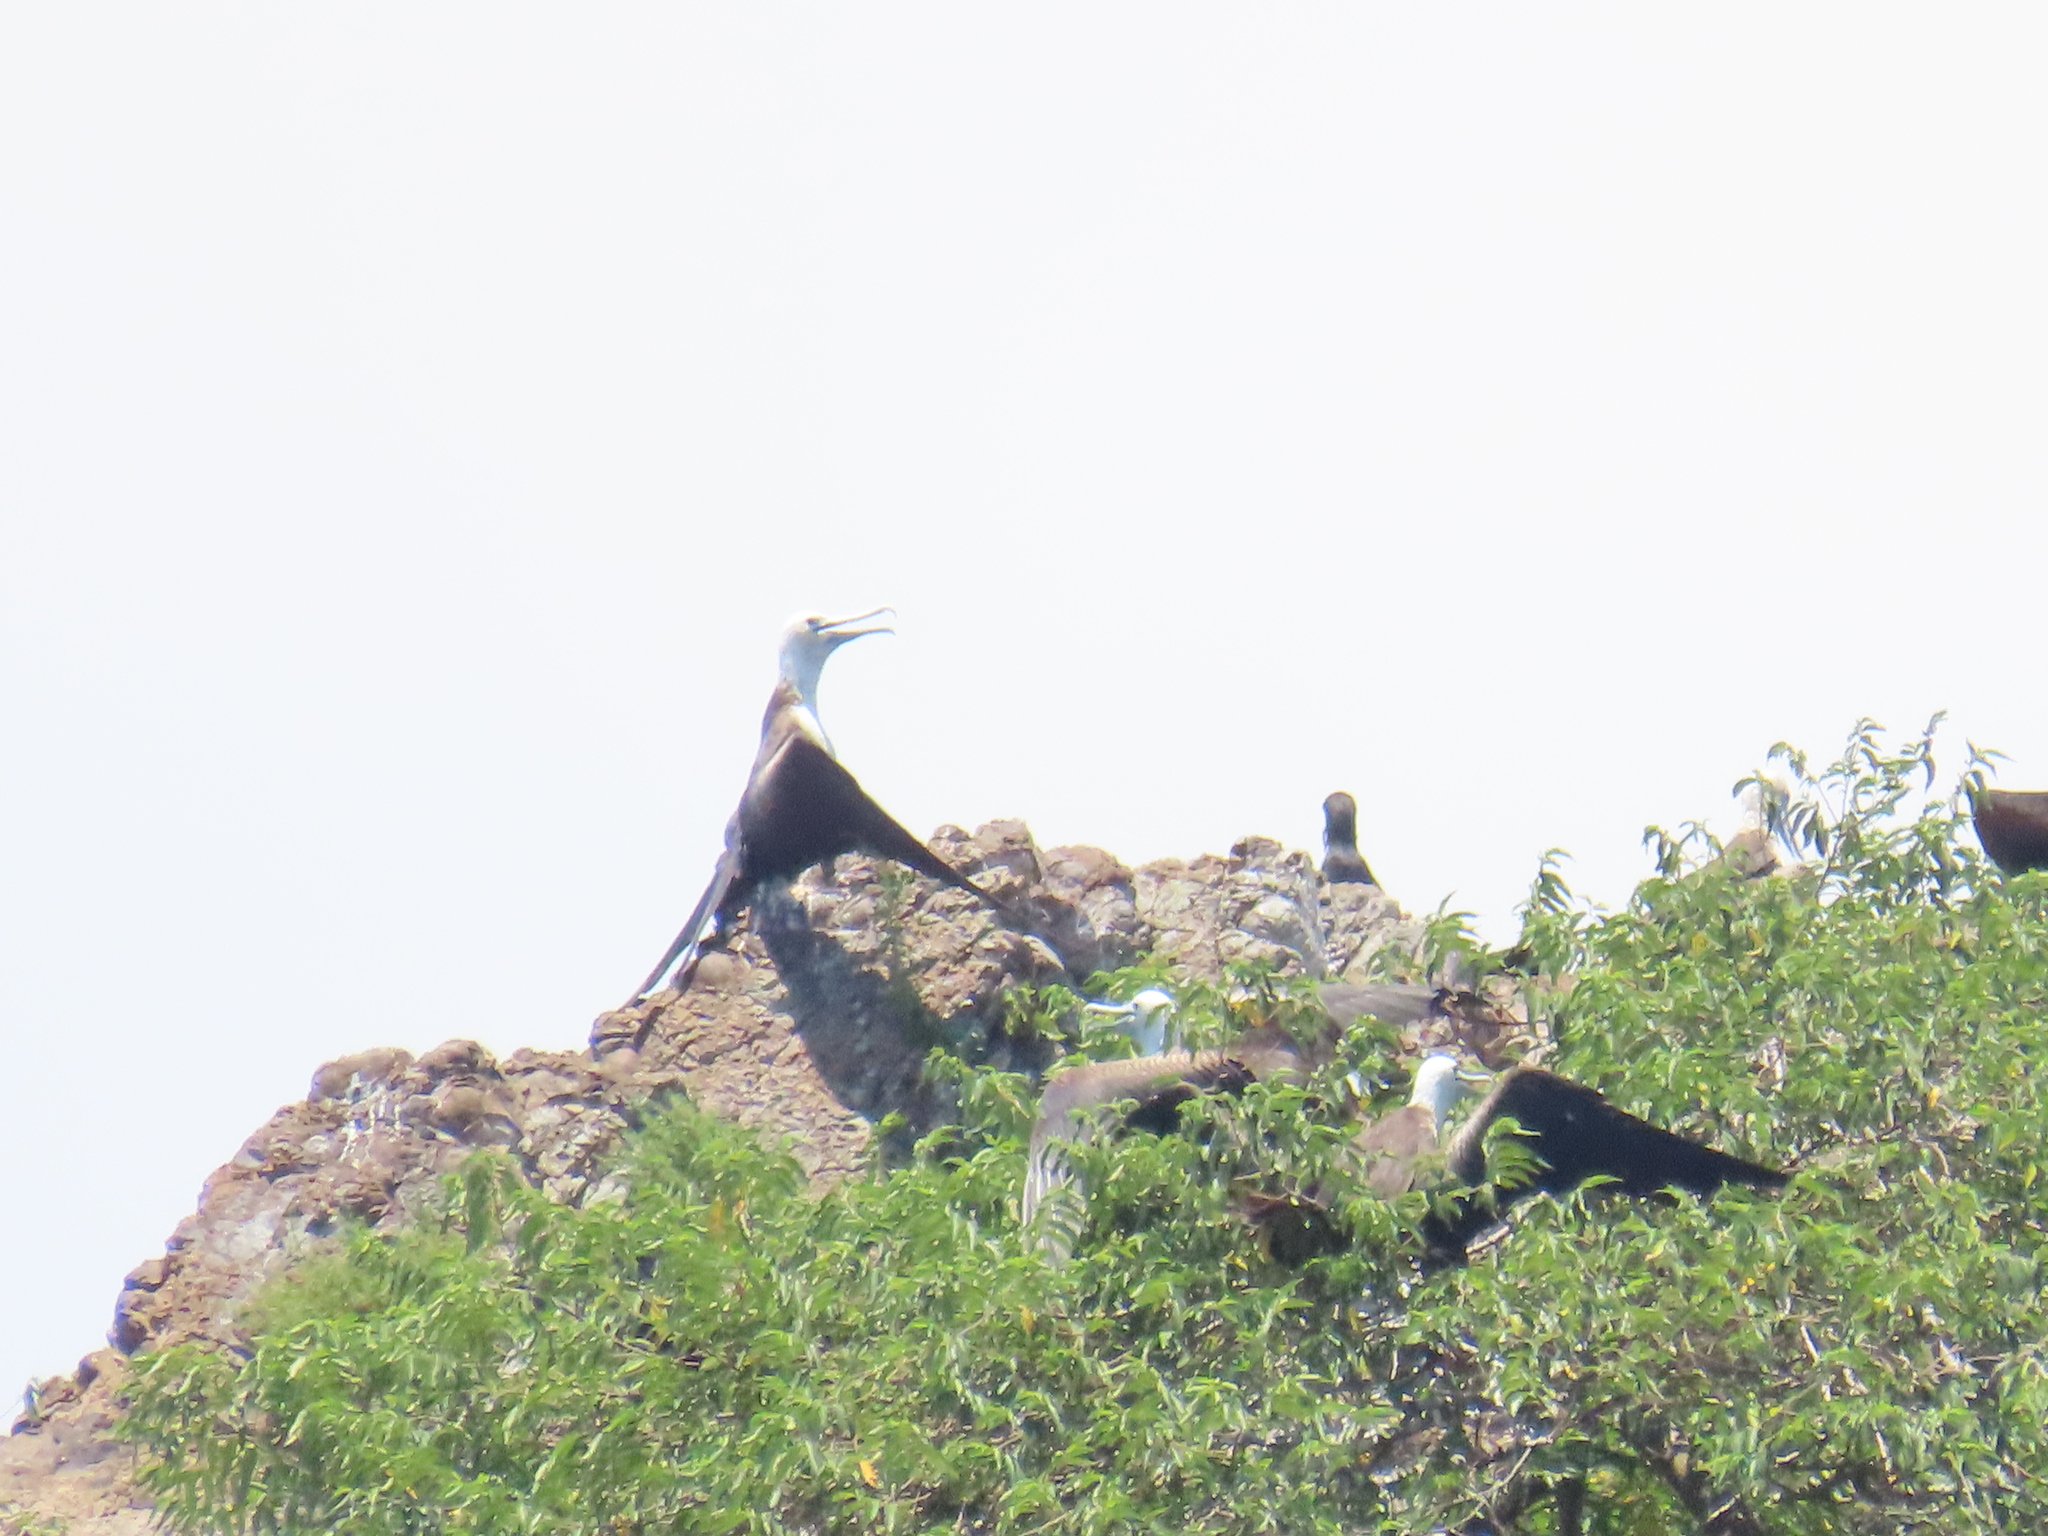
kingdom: Animalia
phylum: Chordata
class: Aves
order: Suliformes
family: Fregatidae
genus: Fregata
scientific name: Fregata magnificens
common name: Magnificent frigatebird
